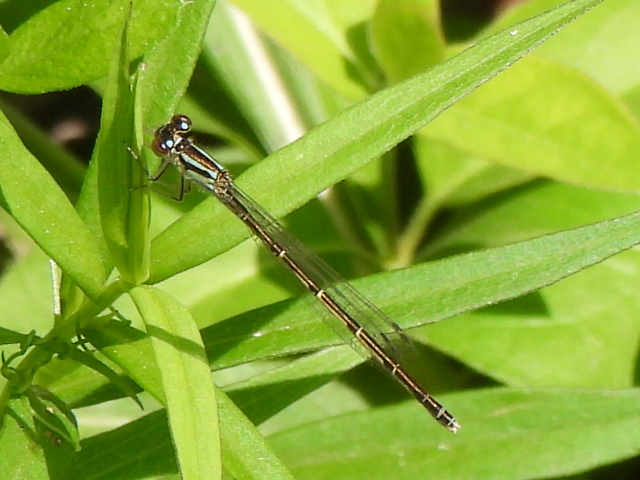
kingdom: Animalia
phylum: Arthropoda
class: Insecta
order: Odonata
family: Coenagrionidae
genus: Ischnura
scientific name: Ischnura posita
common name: Fragile forktail
